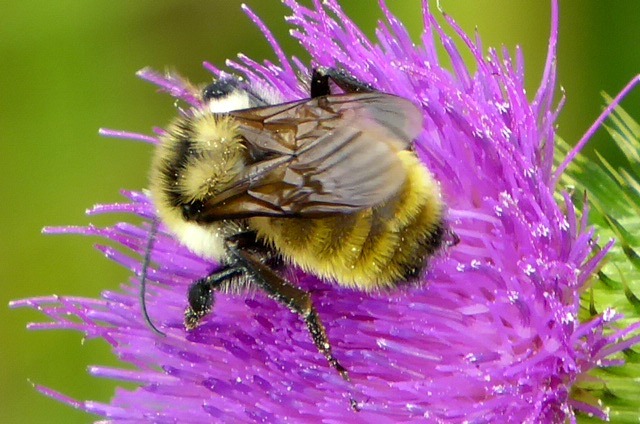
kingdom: Animalia
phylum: Arthropoda
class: Insecta
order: Hymenoptera
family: Apidae
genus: Bombus
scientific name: Bombus fervidus
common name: Yellow bumble bee
